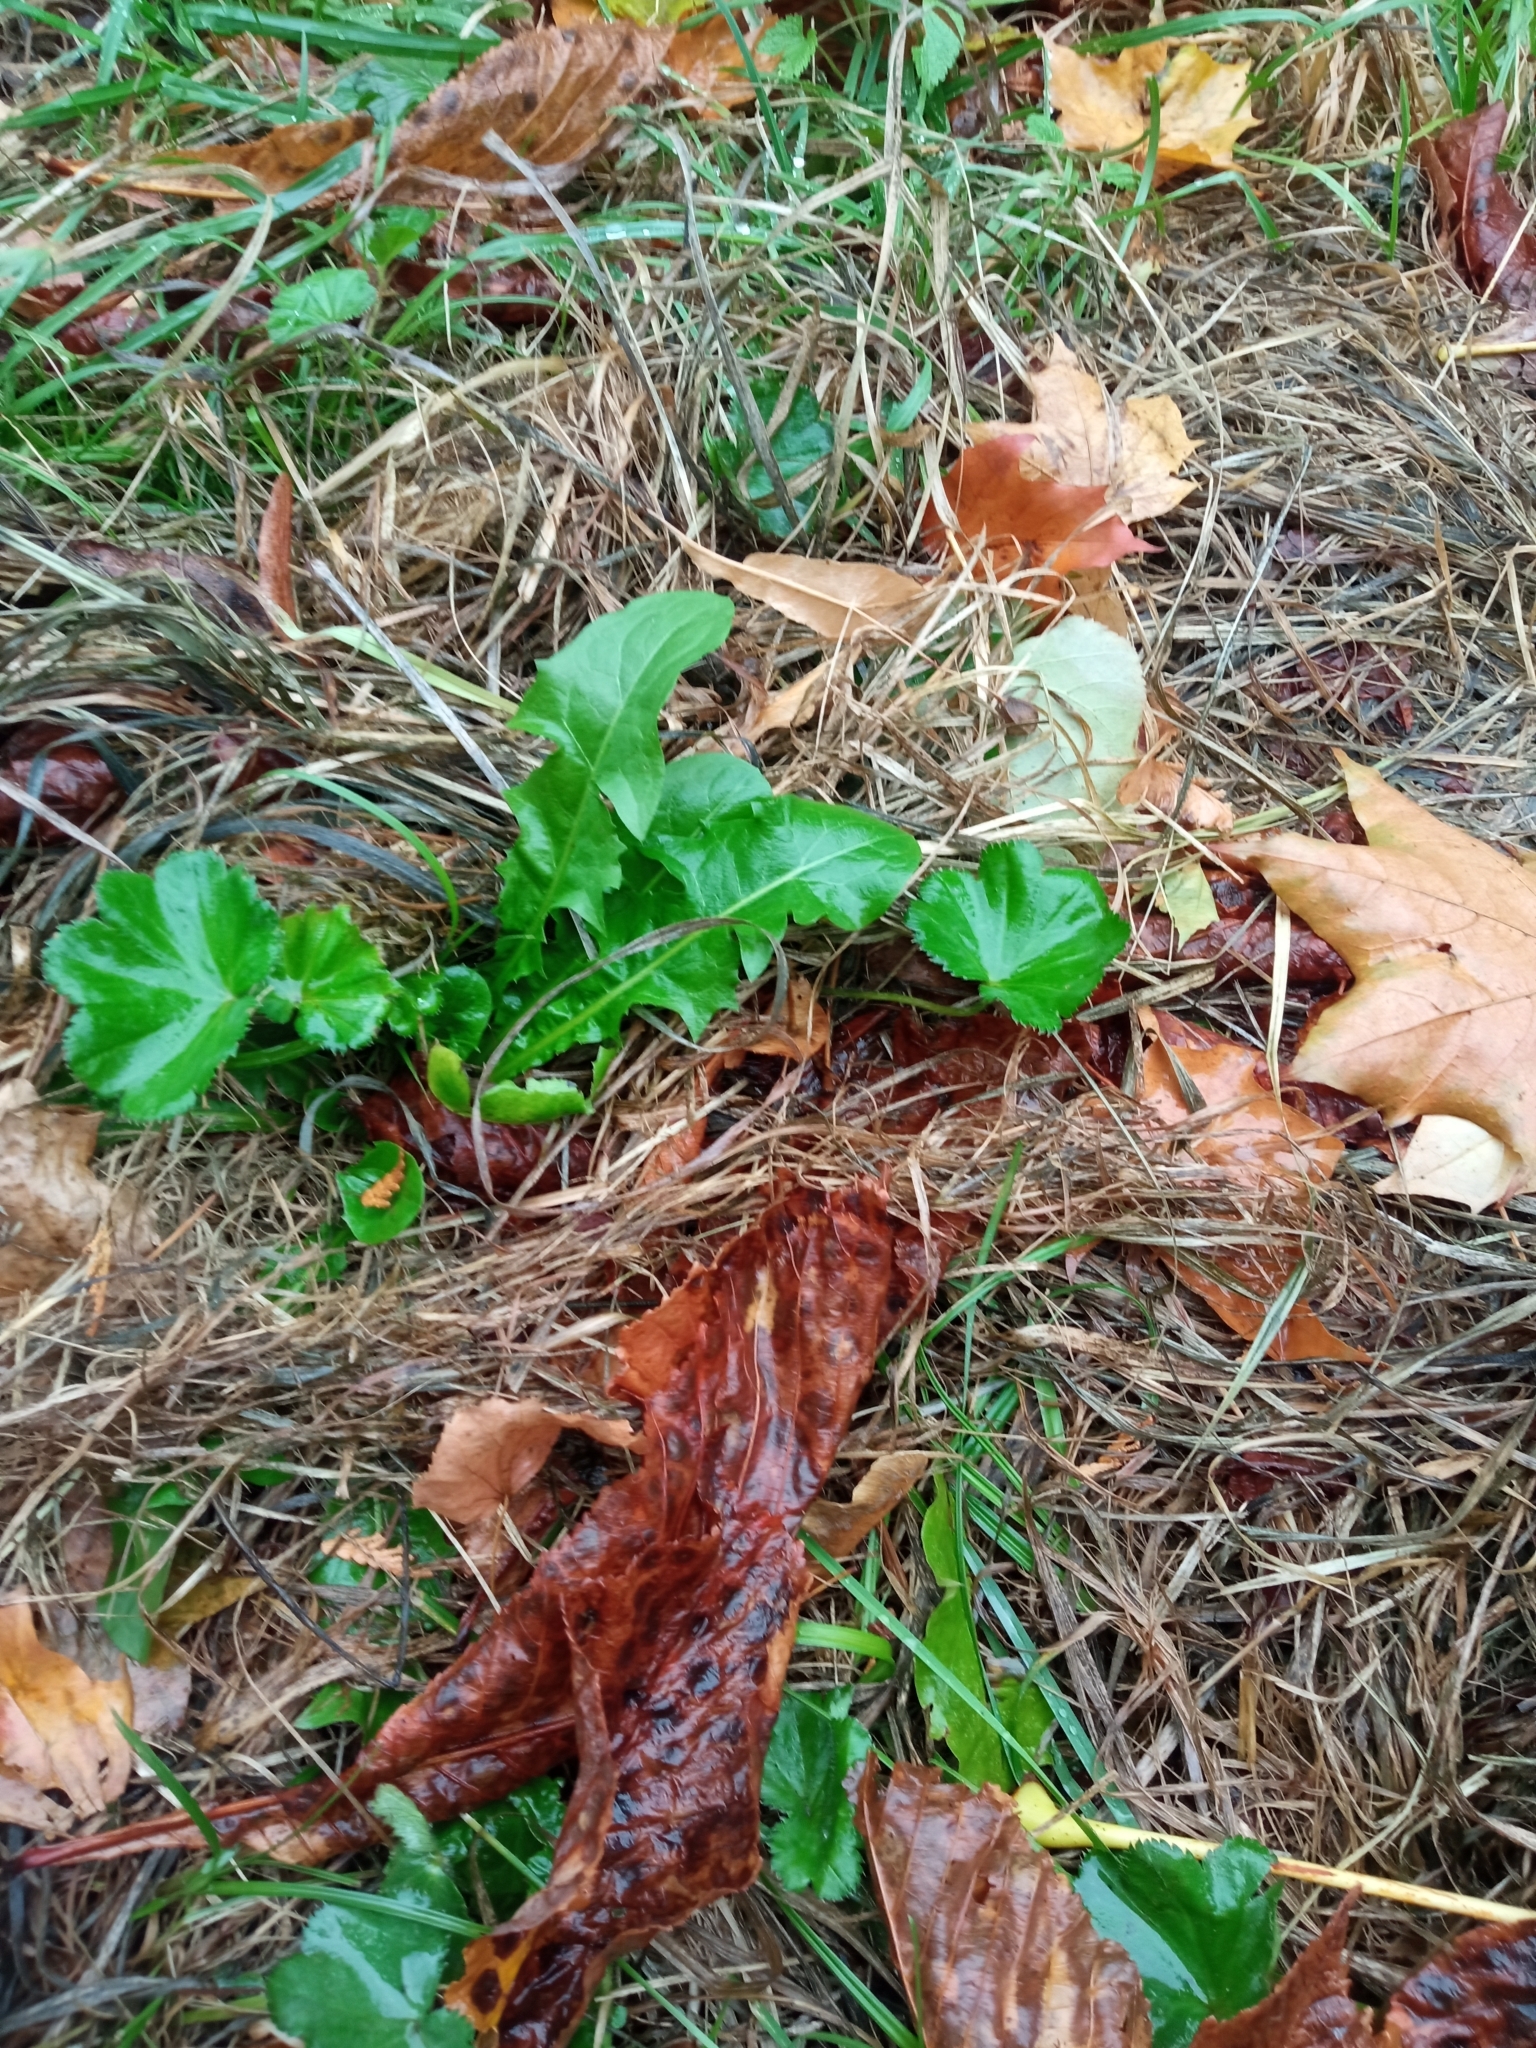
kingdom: Plantae
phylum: Tracheophyta
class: Magnoliopsida
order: Rosales
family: Rosaceae
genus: Alchemilla
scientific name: Alchemilla
